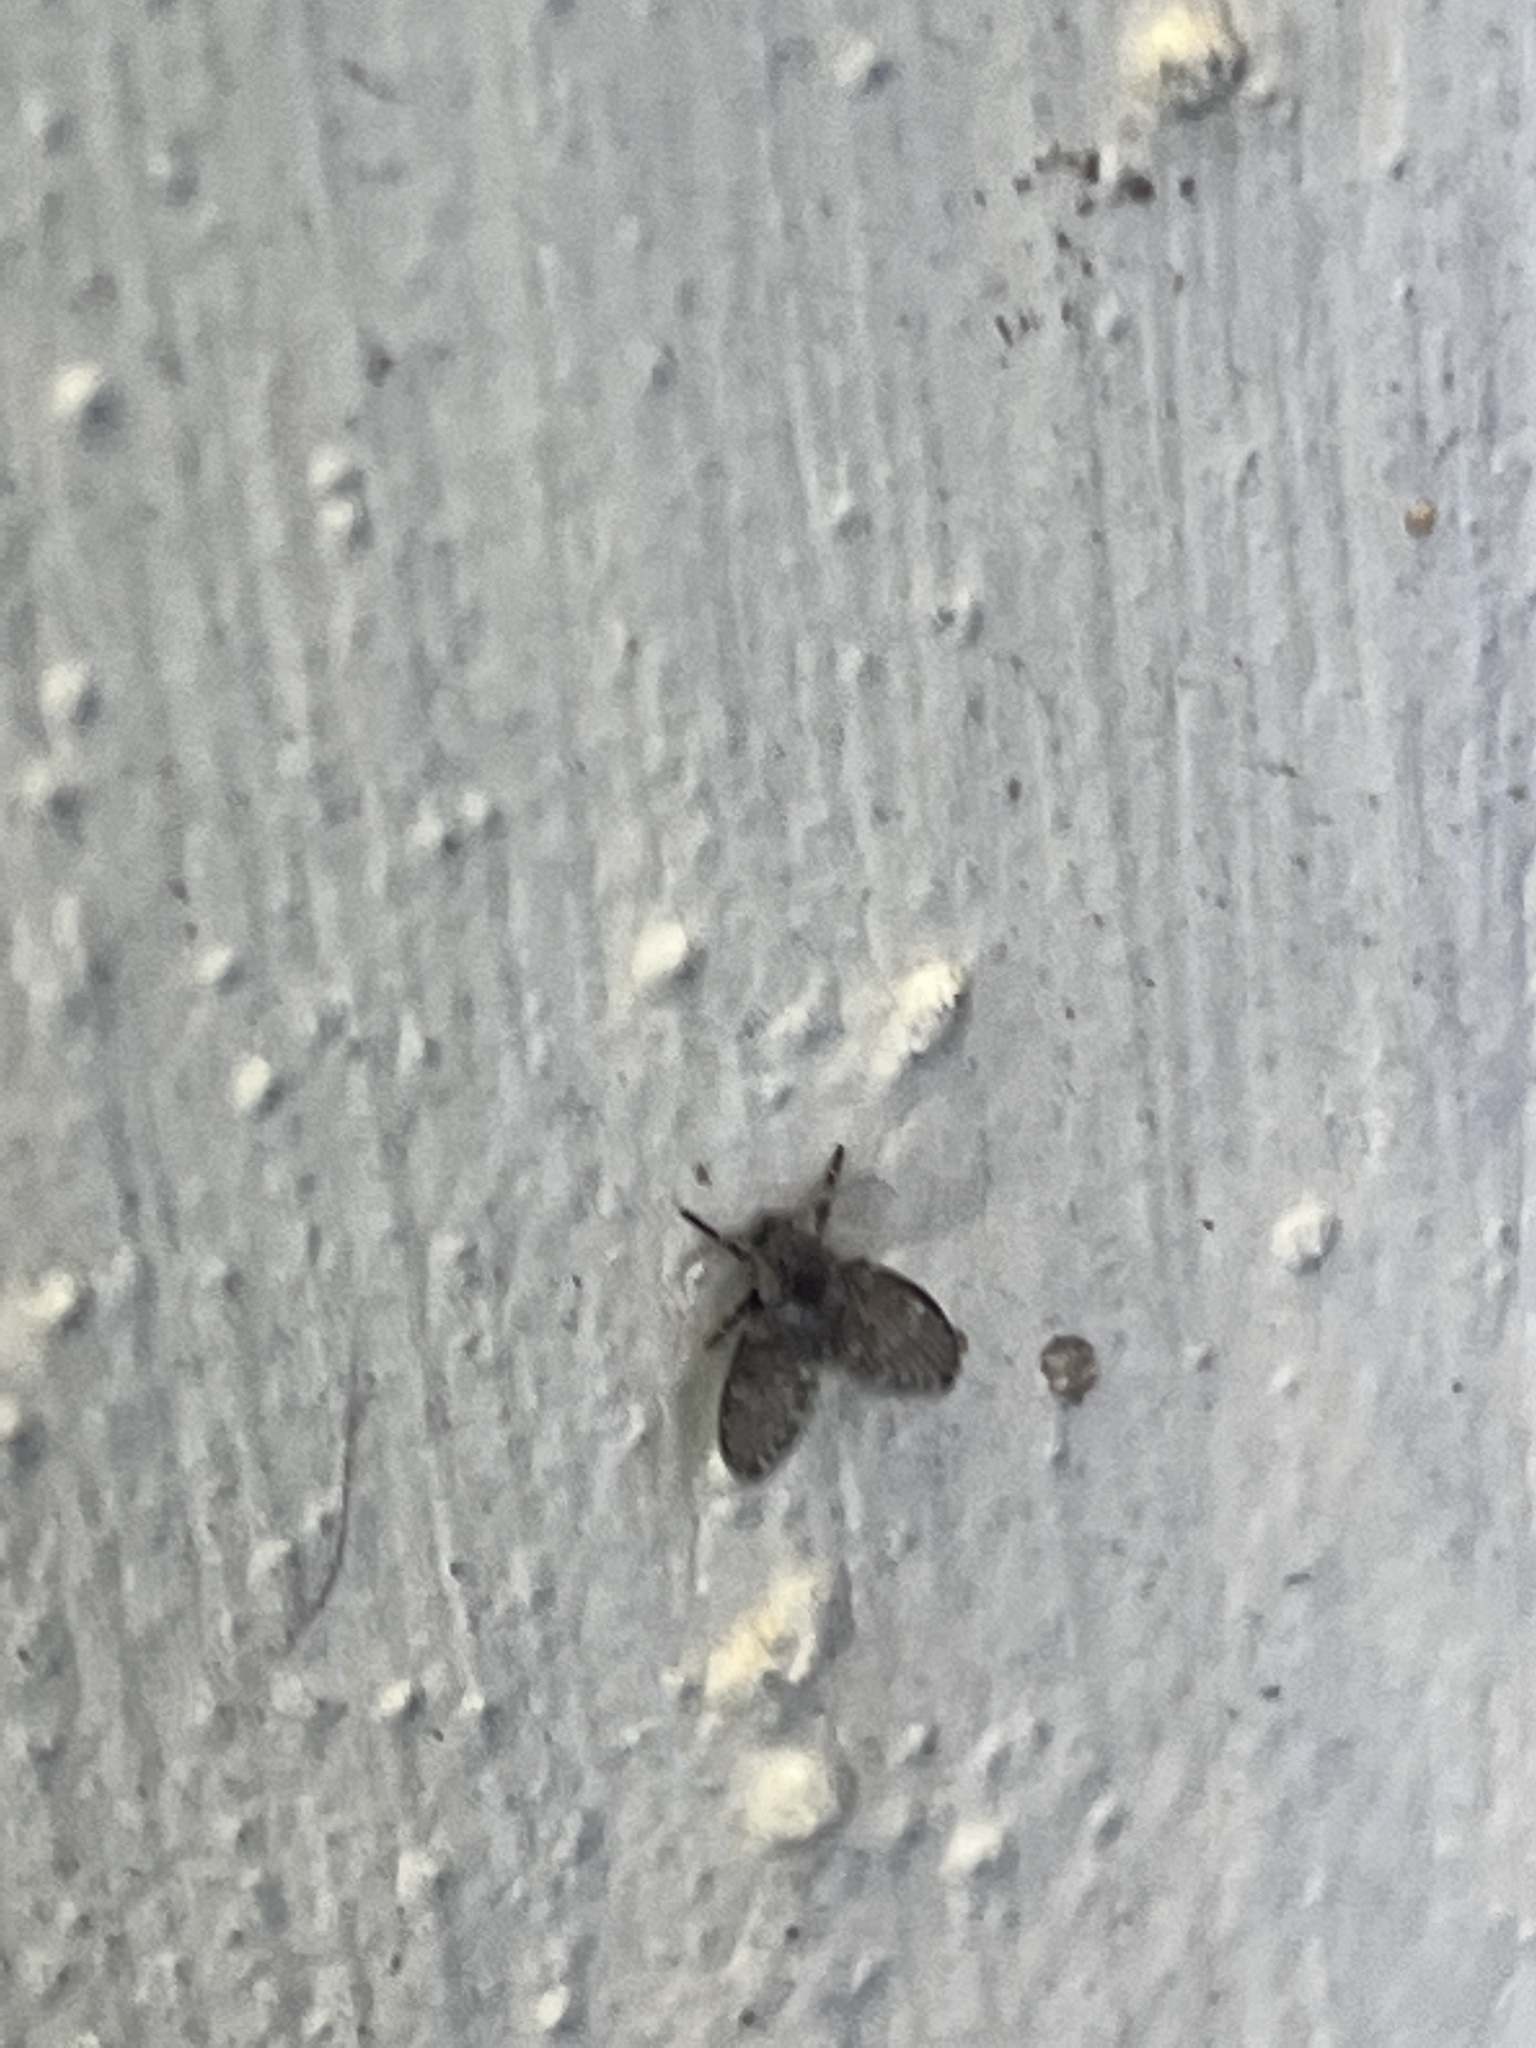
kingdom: Animalia
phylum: Arthropoda
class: Insecta
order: Diptera
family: Psychodidae
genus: Clogmia
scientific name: Clogmia albipunctatus
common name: White-spotted moth fly
